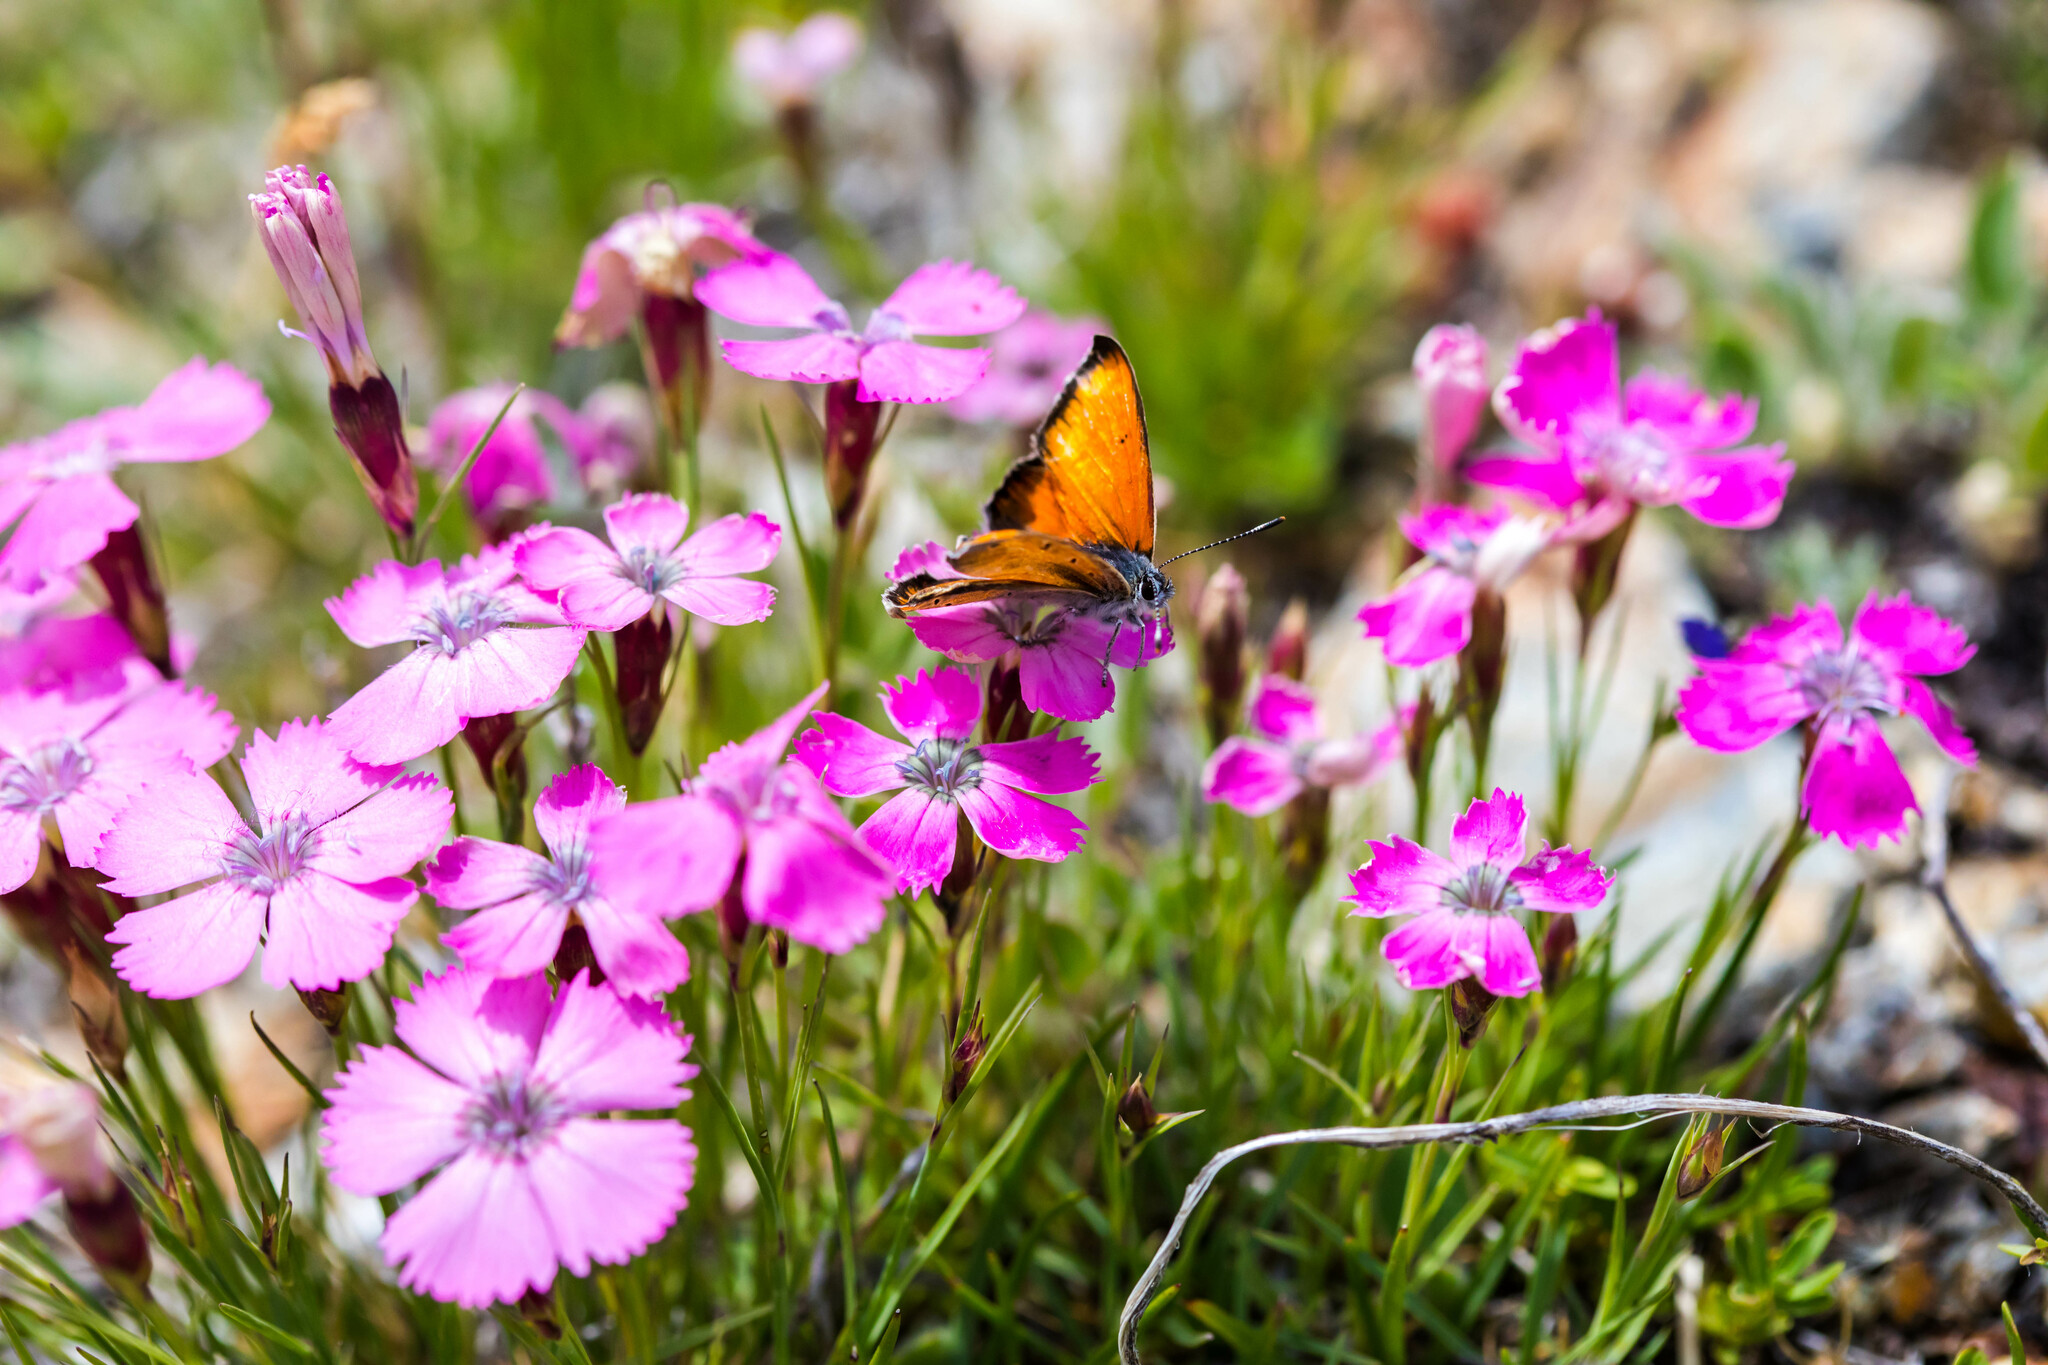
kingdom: Animalia
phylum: Arthropoda
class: Insecta
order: Lepidoptera
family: Lycaenidae
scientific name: Lycaenidae
